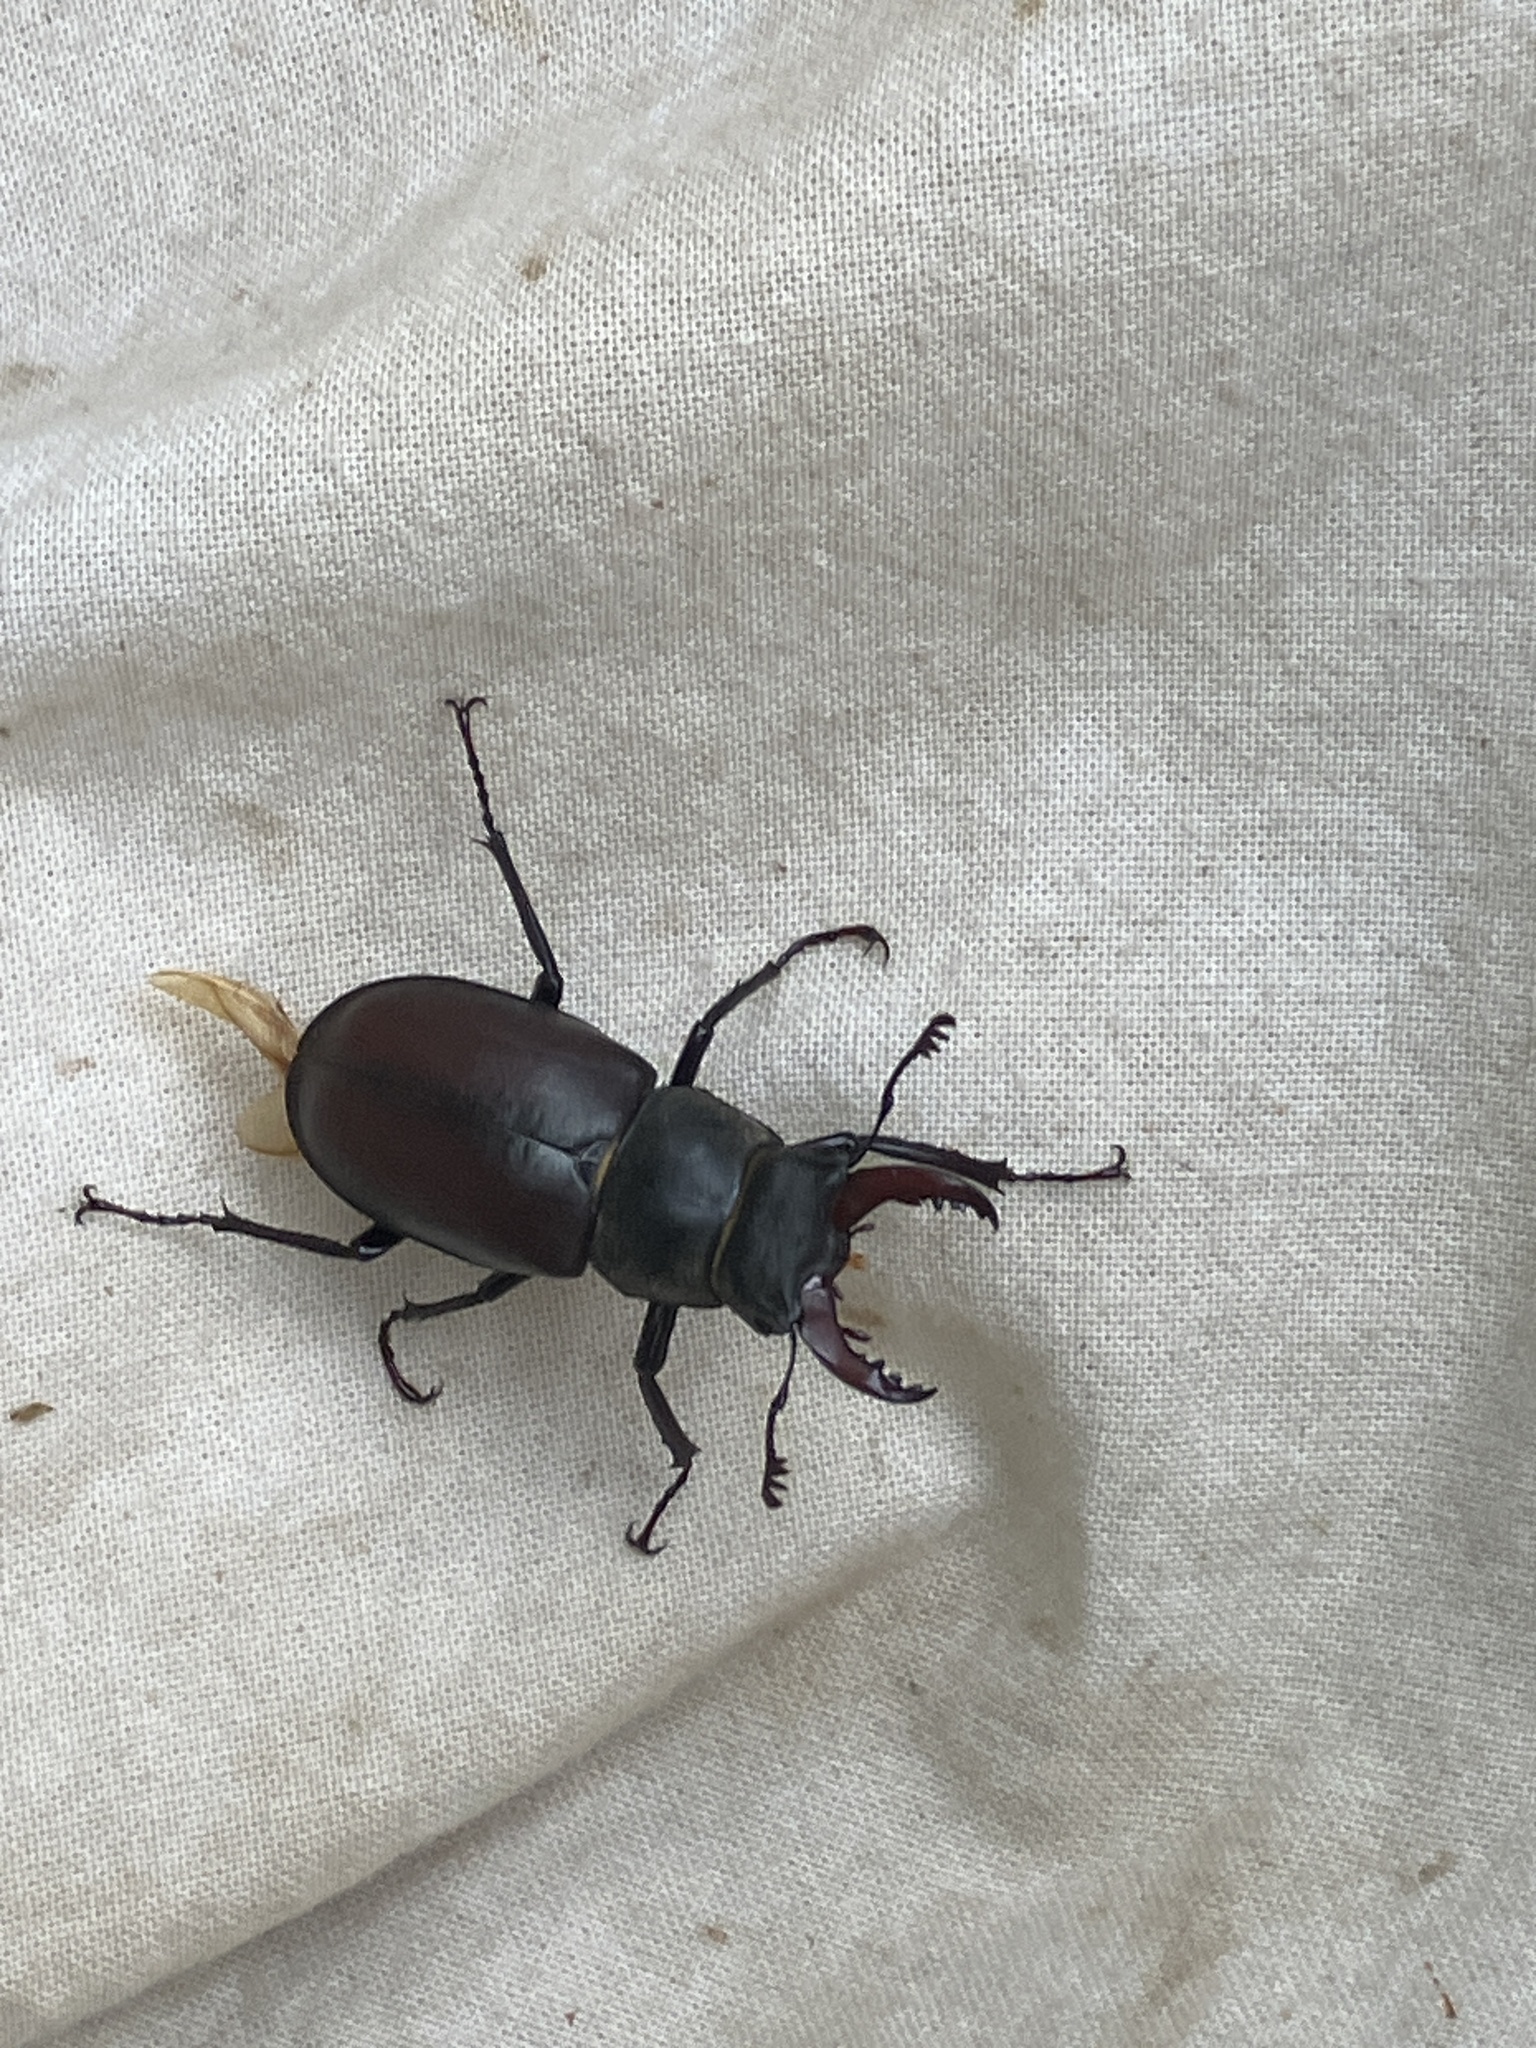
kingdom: Animalia
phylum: Arthropoda
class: Insecta
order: Coleoptera
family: Lucanidae
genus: Lucanus
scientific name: Lucanus cervus
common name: Stag beetle
